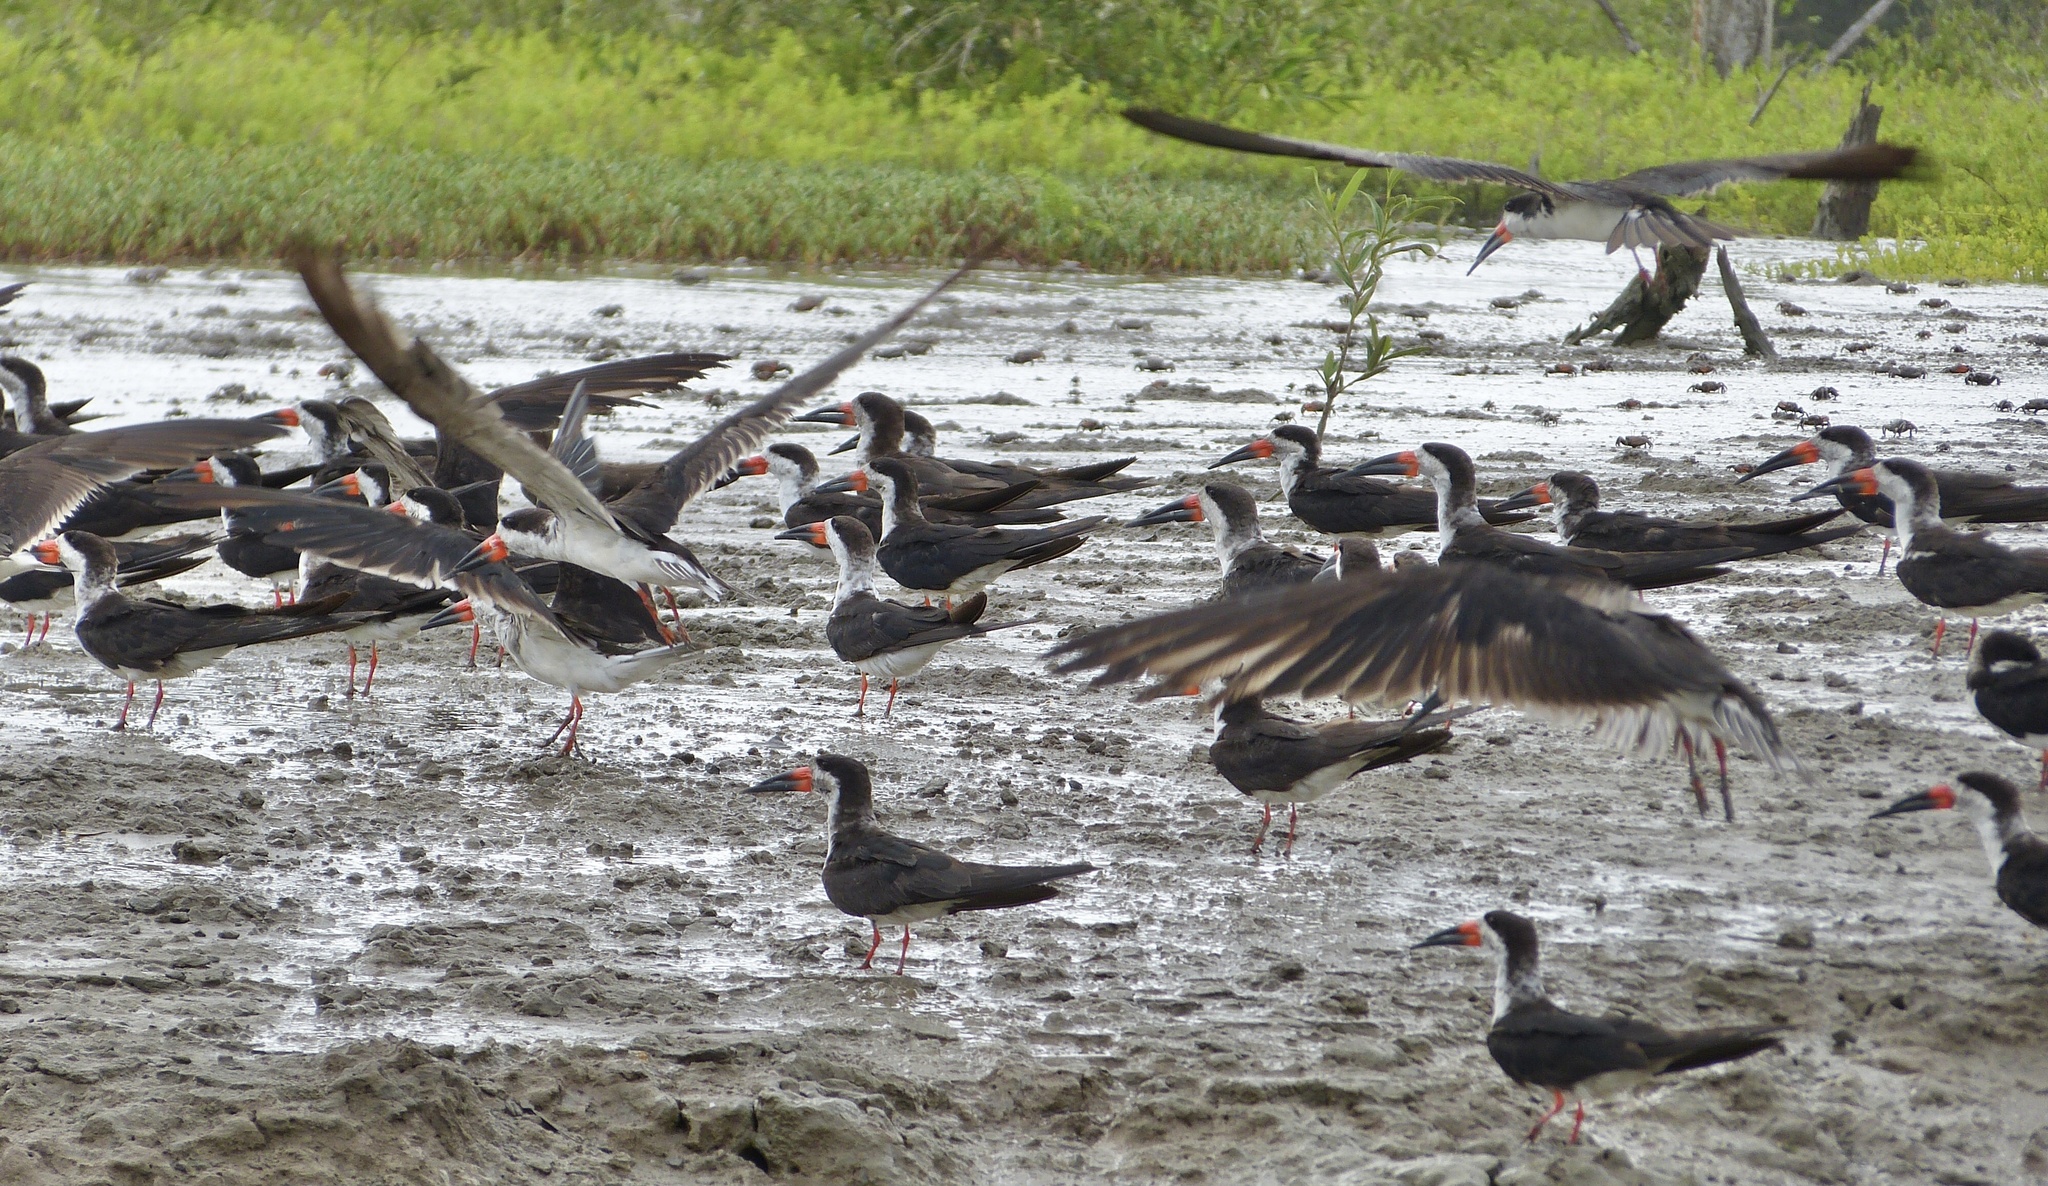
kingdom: Animalia
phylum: Chordata
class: Aves
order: Charadriiformes
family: Laridae
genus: Rynchops
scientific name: Rynchops niger
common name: Black skimmer
